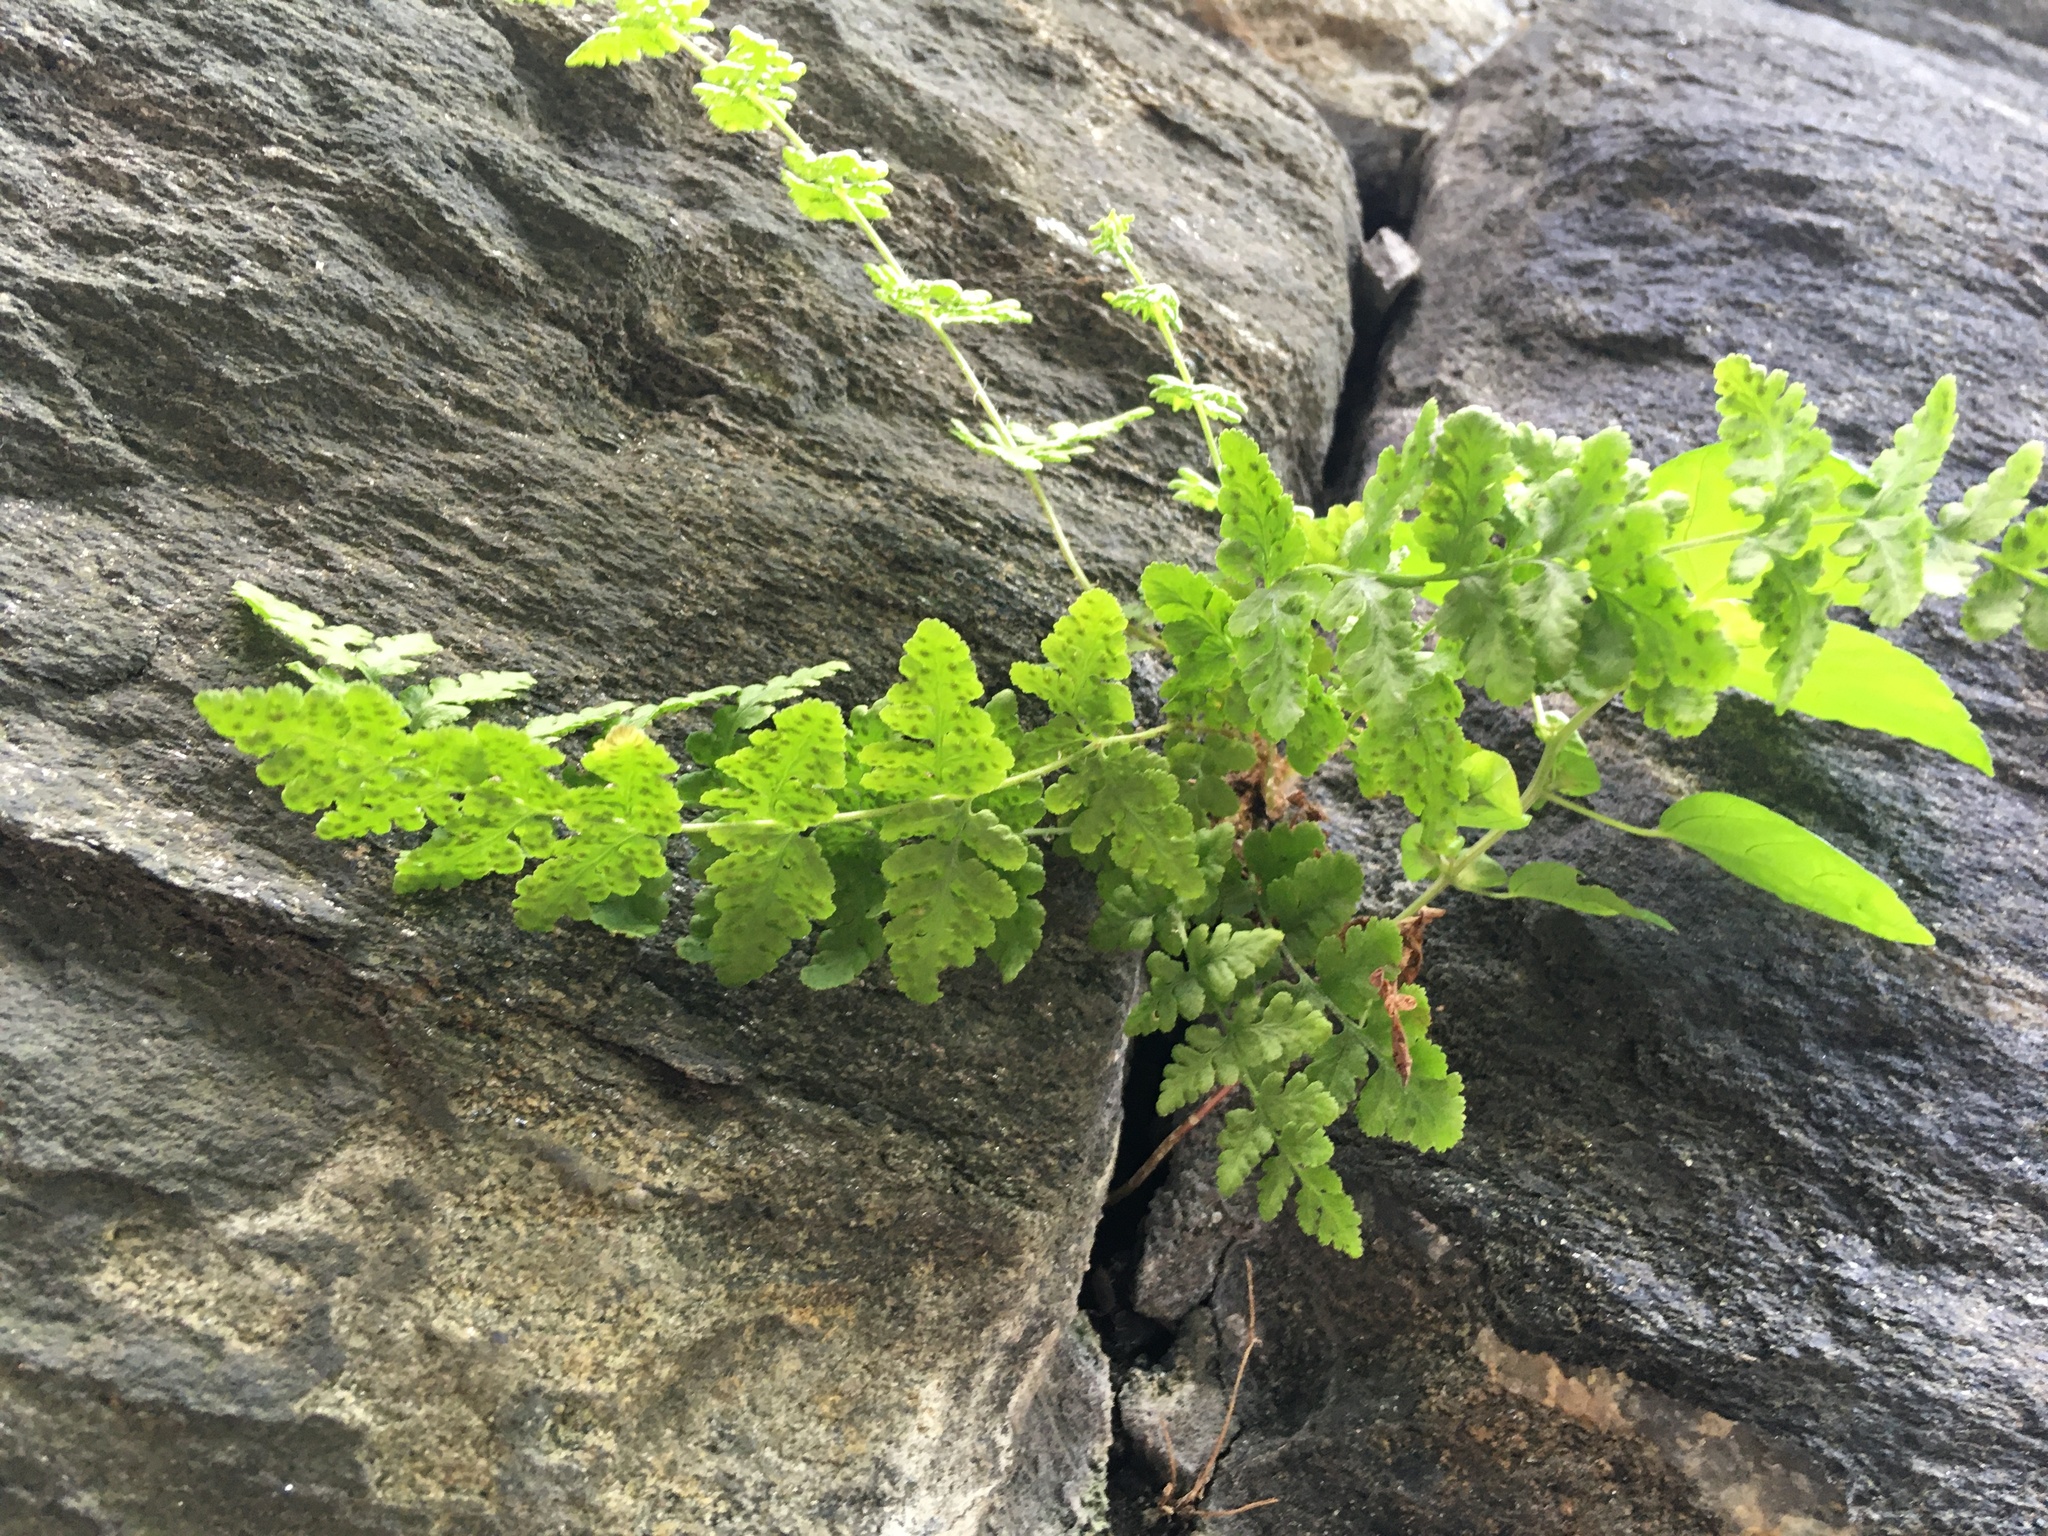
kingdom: Plantae
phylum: Tracheophyta
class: Polypodiopsida
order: Polypodiales
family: Woodsiaceae
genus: Physematium
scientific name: Physematium obtusum
